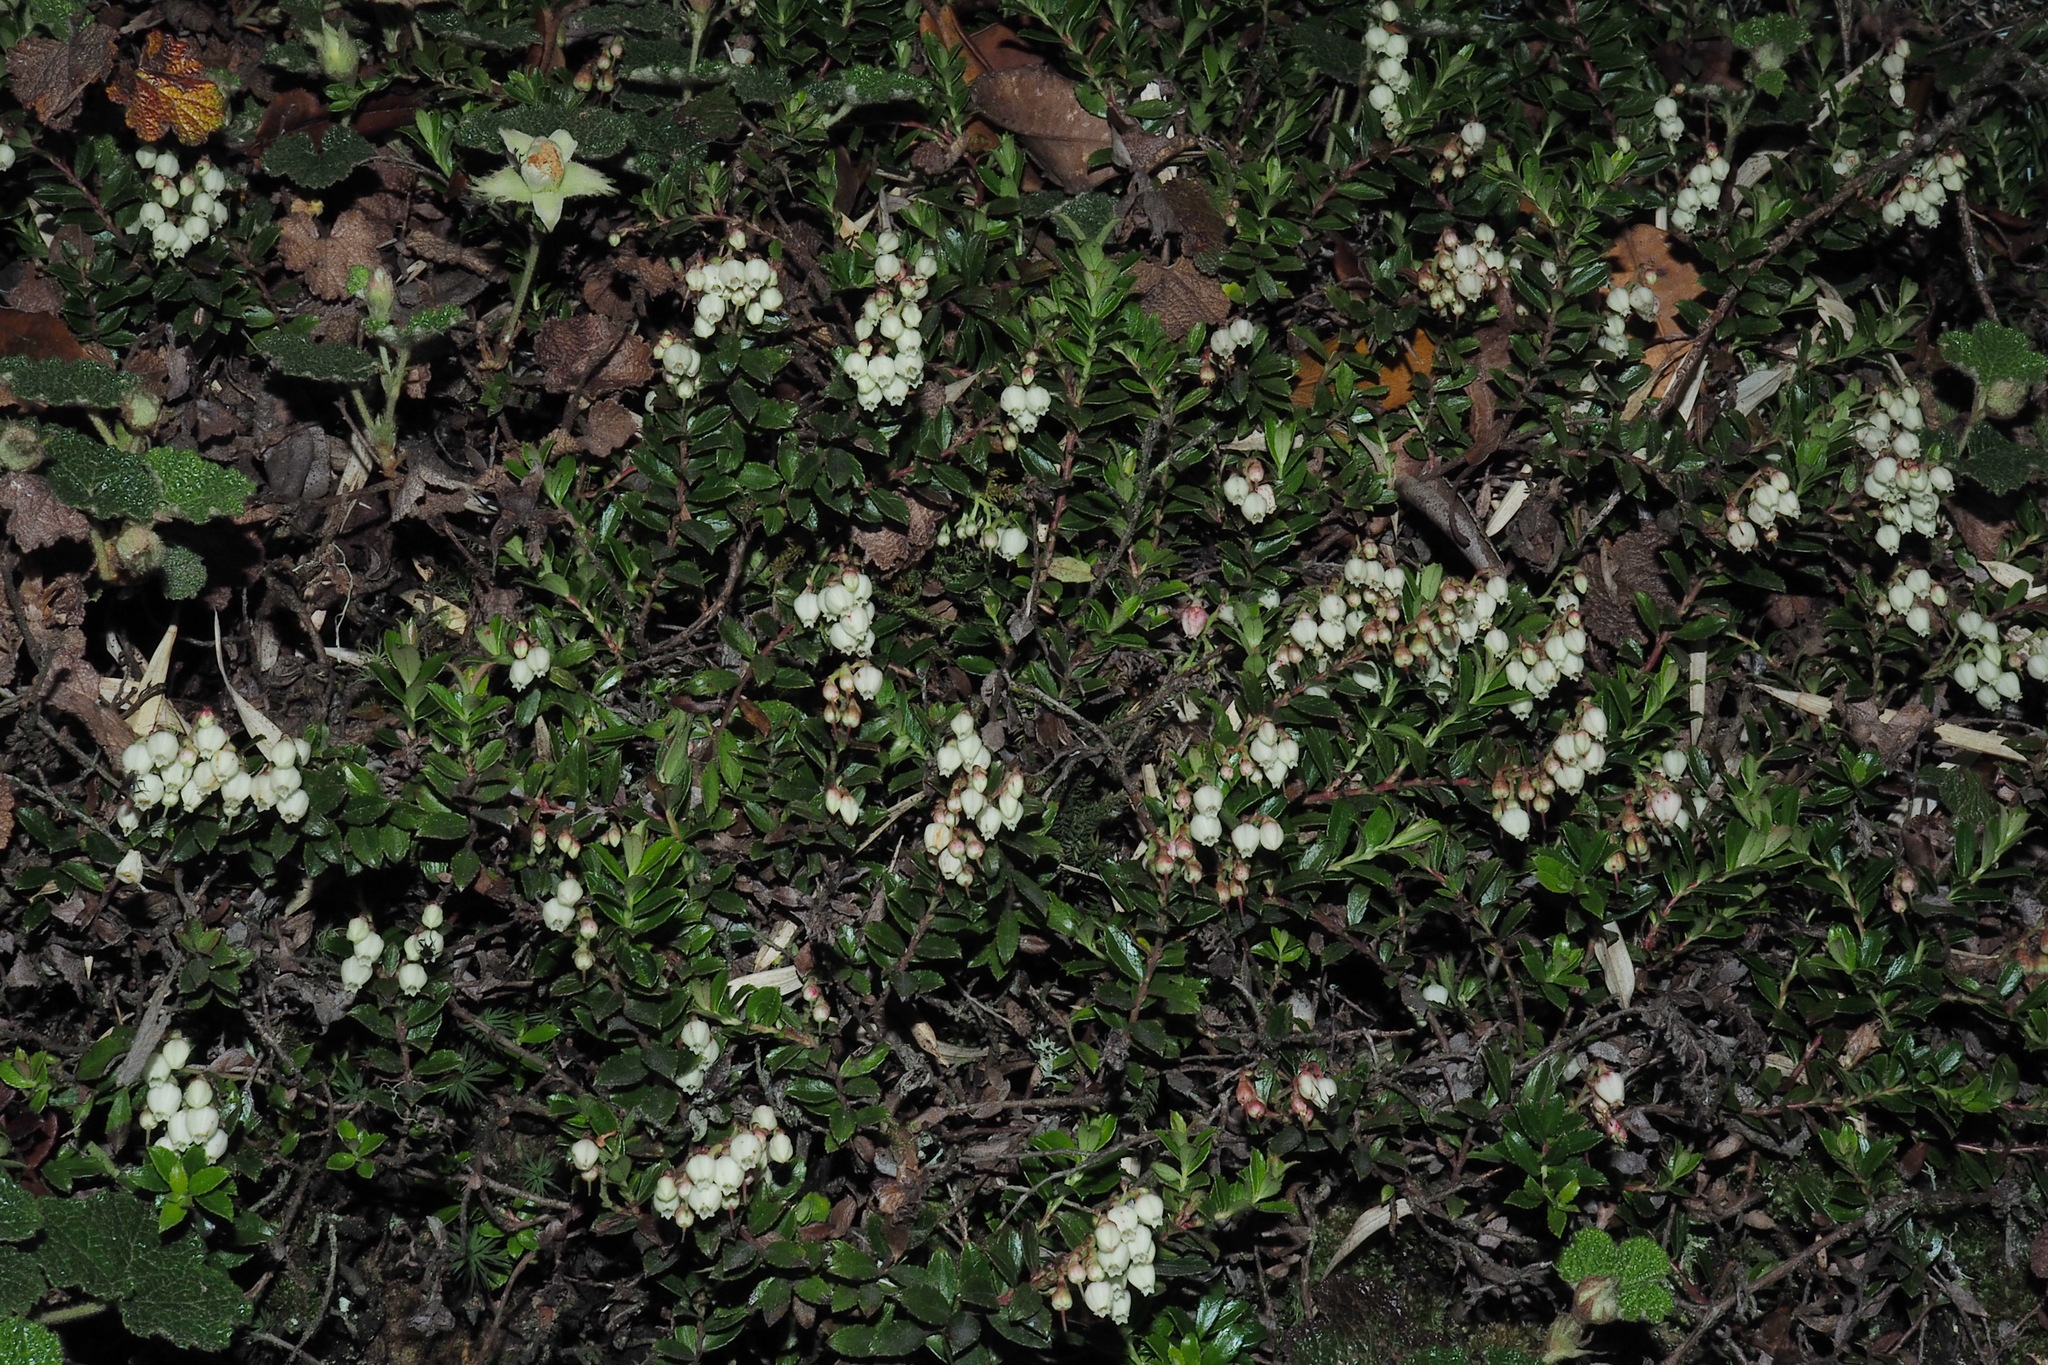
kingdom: Plantae
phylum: Tracheophyta
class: Magnoliopsida
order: Ericales
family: Ericaceae
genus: Gaultheria
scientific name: Gaultheria borneensis
